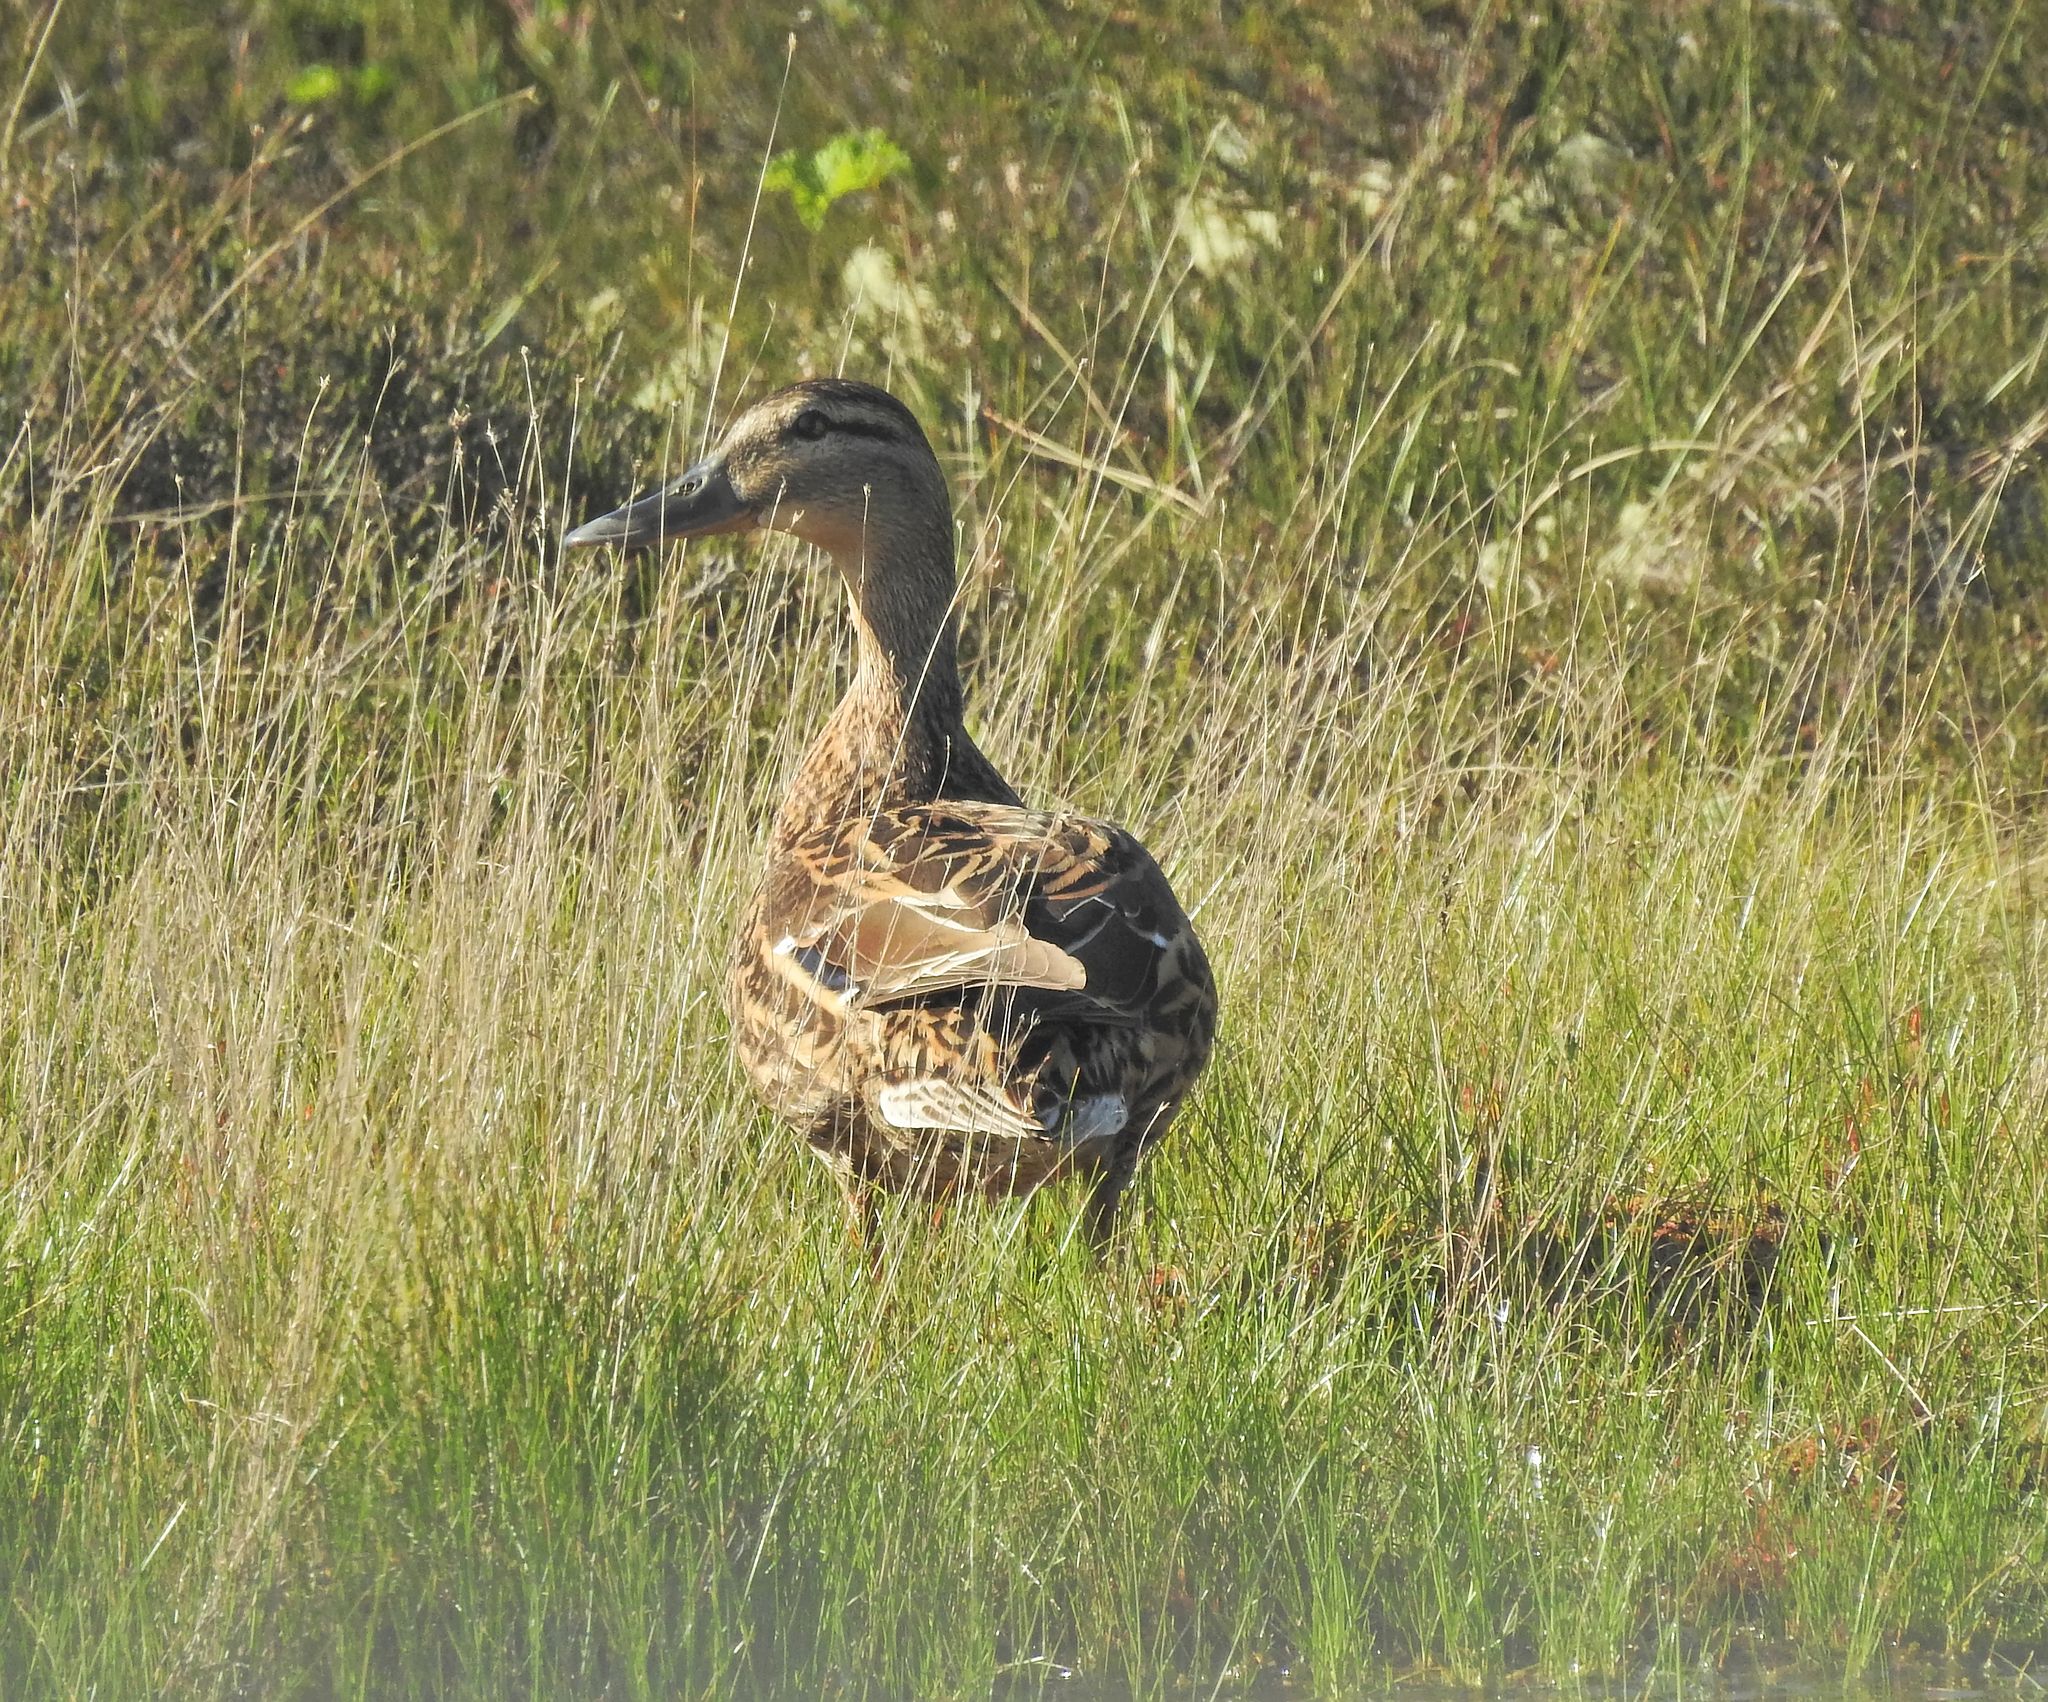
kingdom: Animalia
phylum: Chordata
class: Aves
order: Anseriformes
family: Anatidae
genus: Anas
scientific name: Anas platyrhynchos
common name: Mallard
